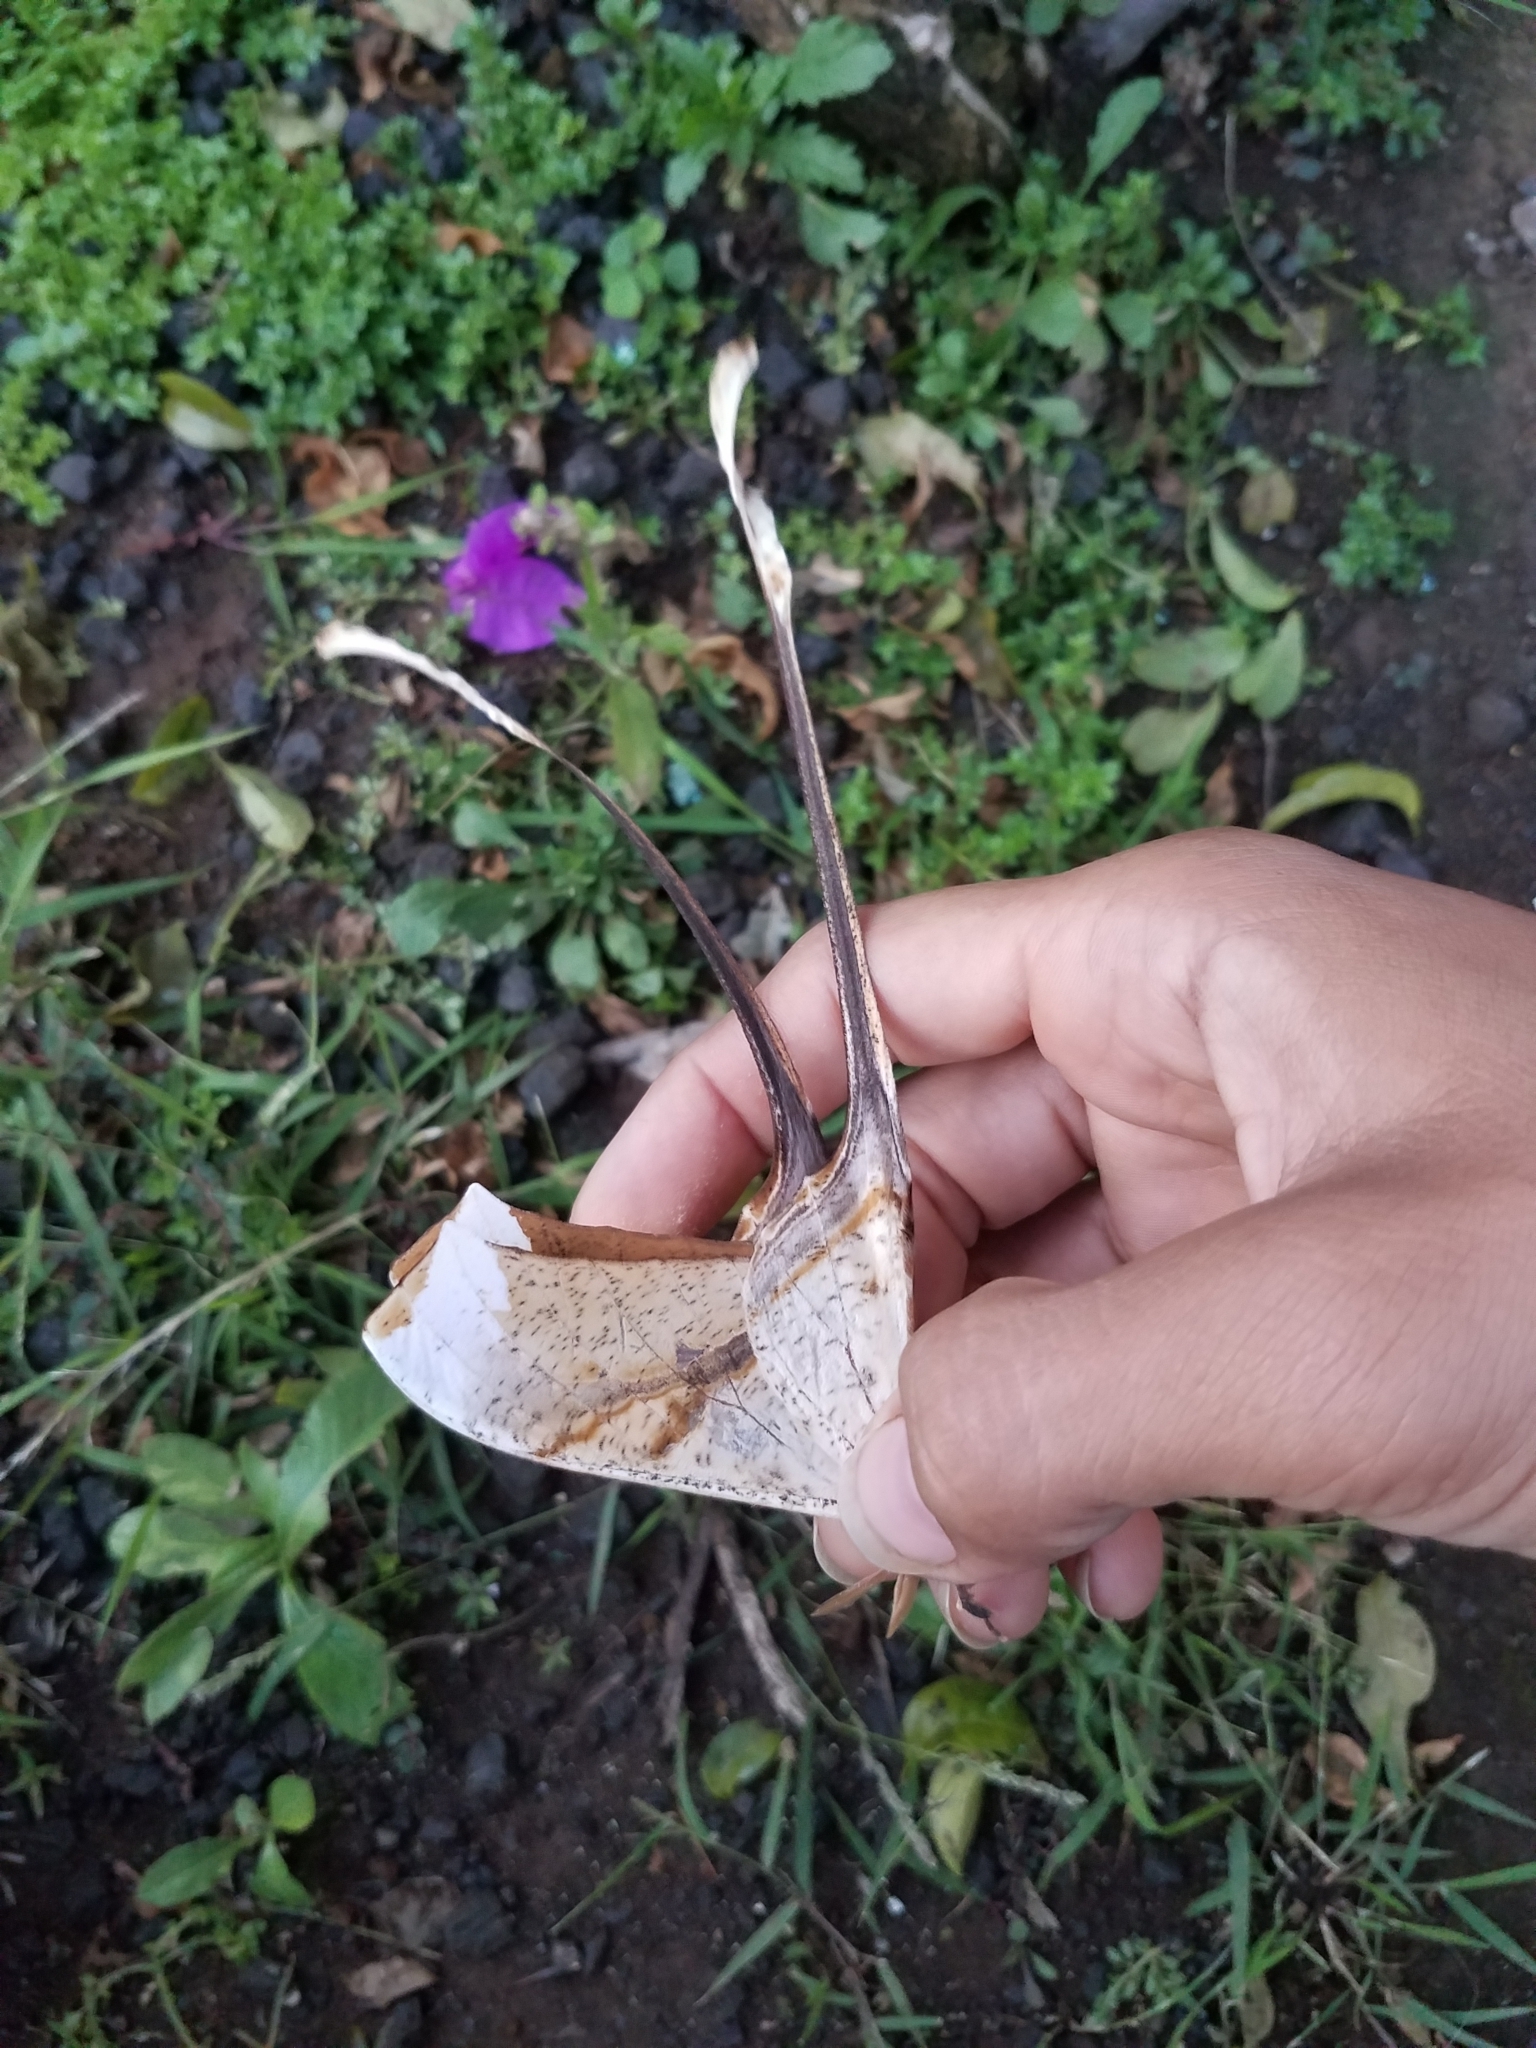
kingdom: Animalia
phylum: Arthropoda
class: Insecta
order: Lepidoptera
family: Saturniidae
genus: Copiopteryx
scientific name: Copiopteryx semiramis
